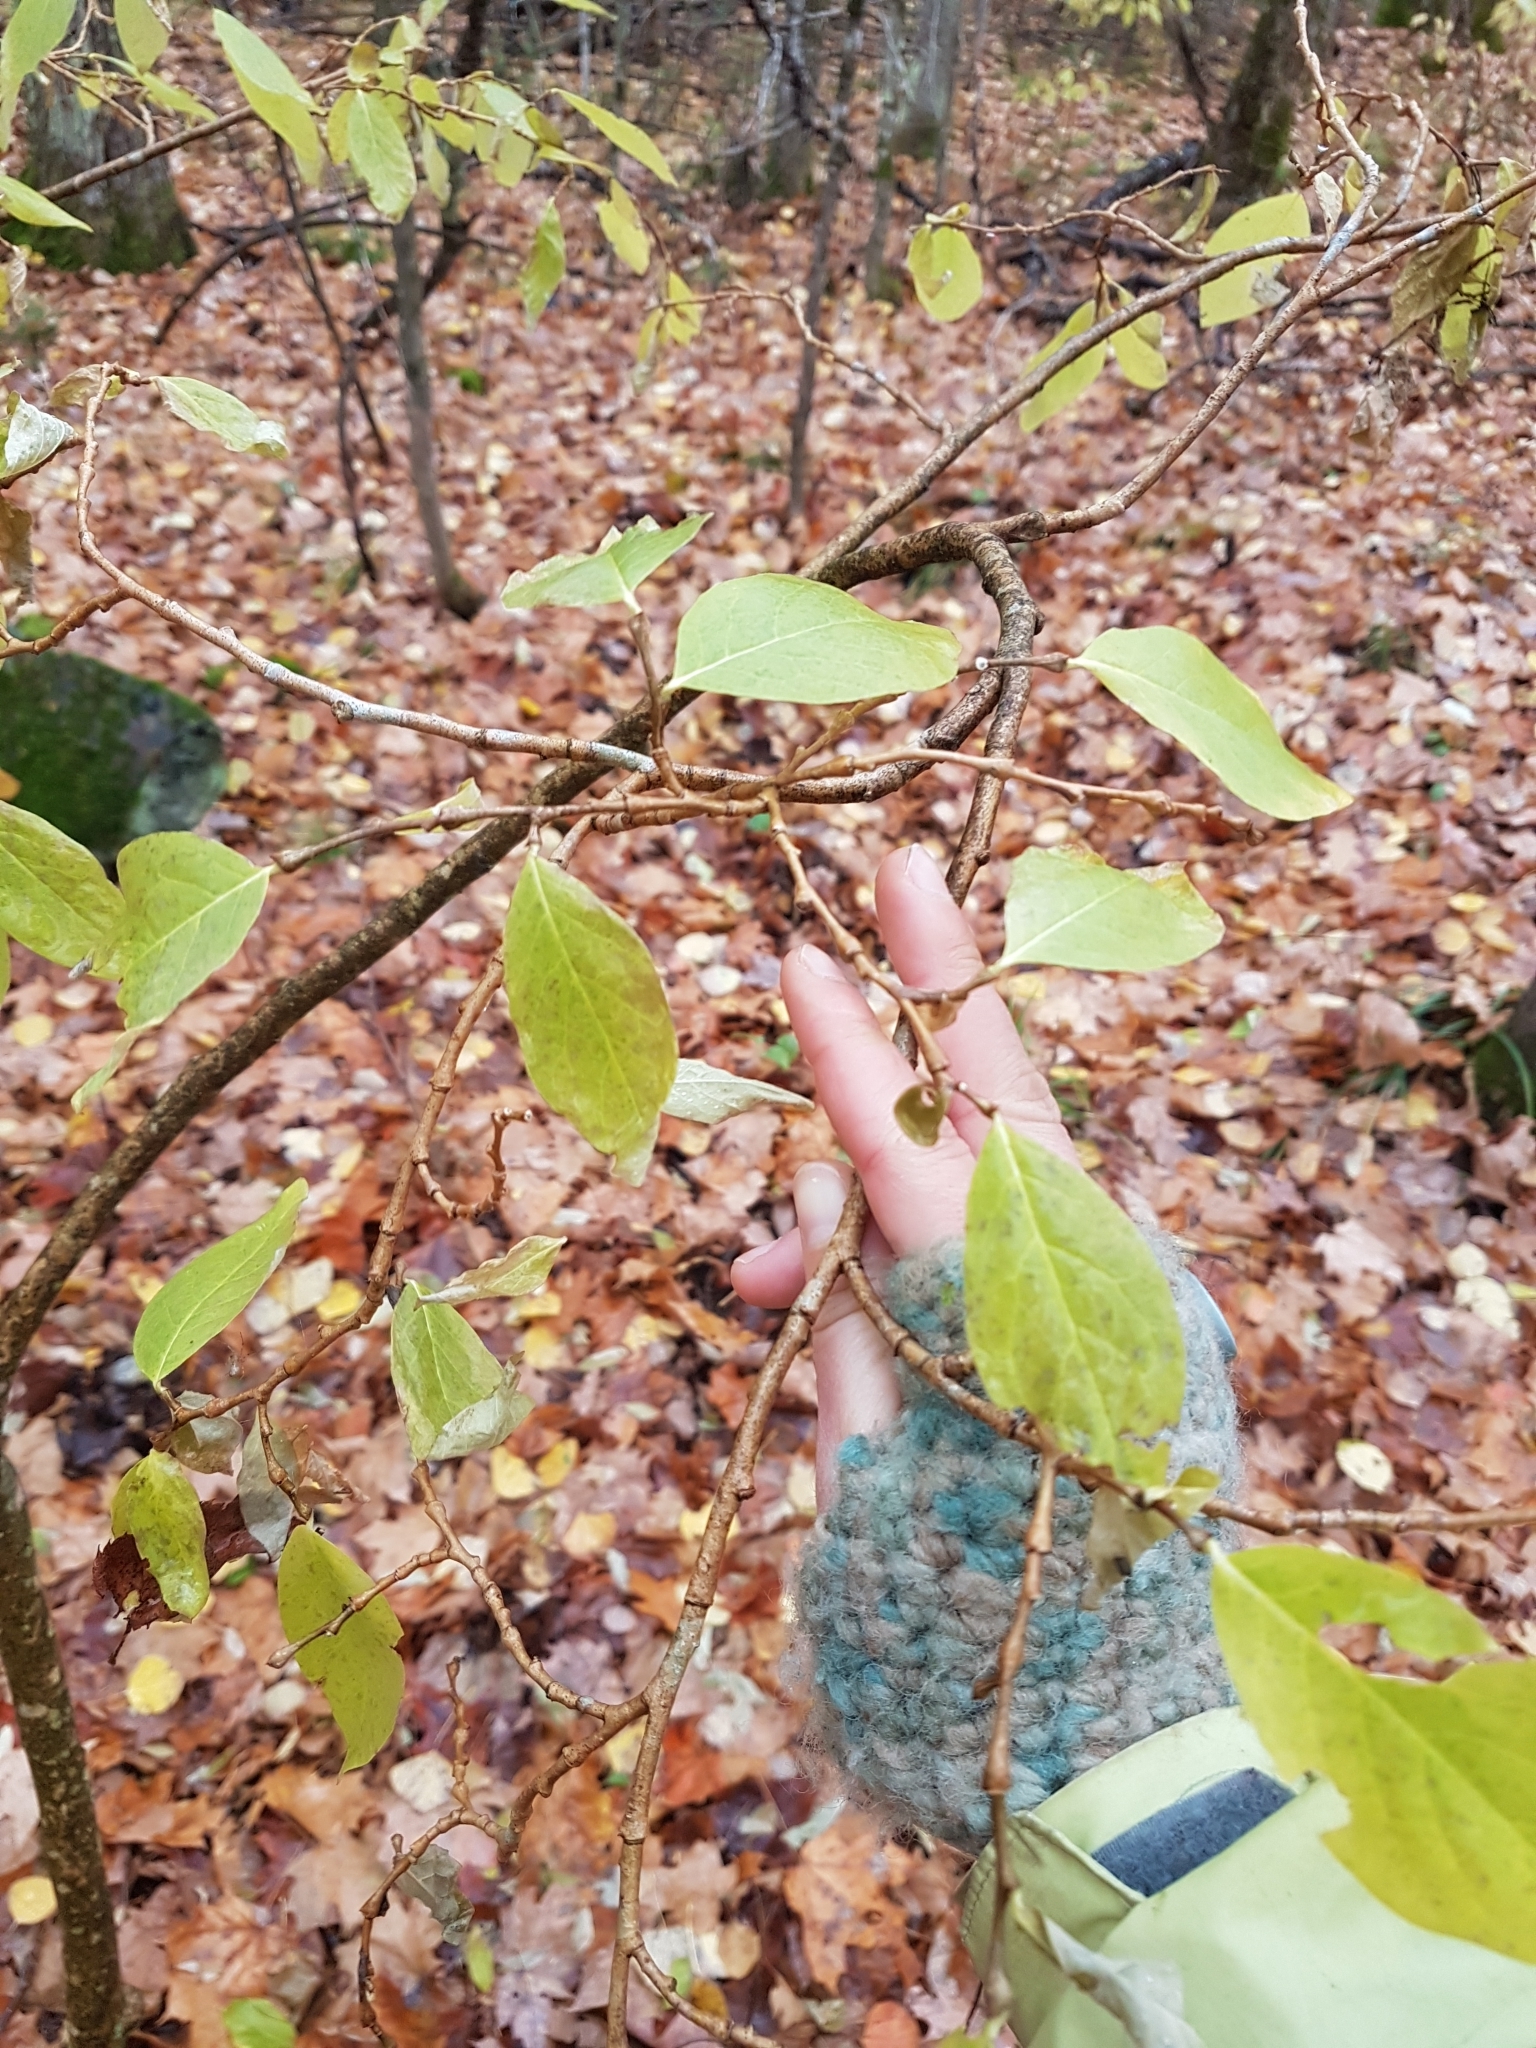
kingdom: Plantae
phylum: Tracheophyta
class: Magnoliopsida
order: Malvales
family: Thymelaeaceae
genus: Dirca
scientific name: Dirca palustris
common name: Leatherwood
